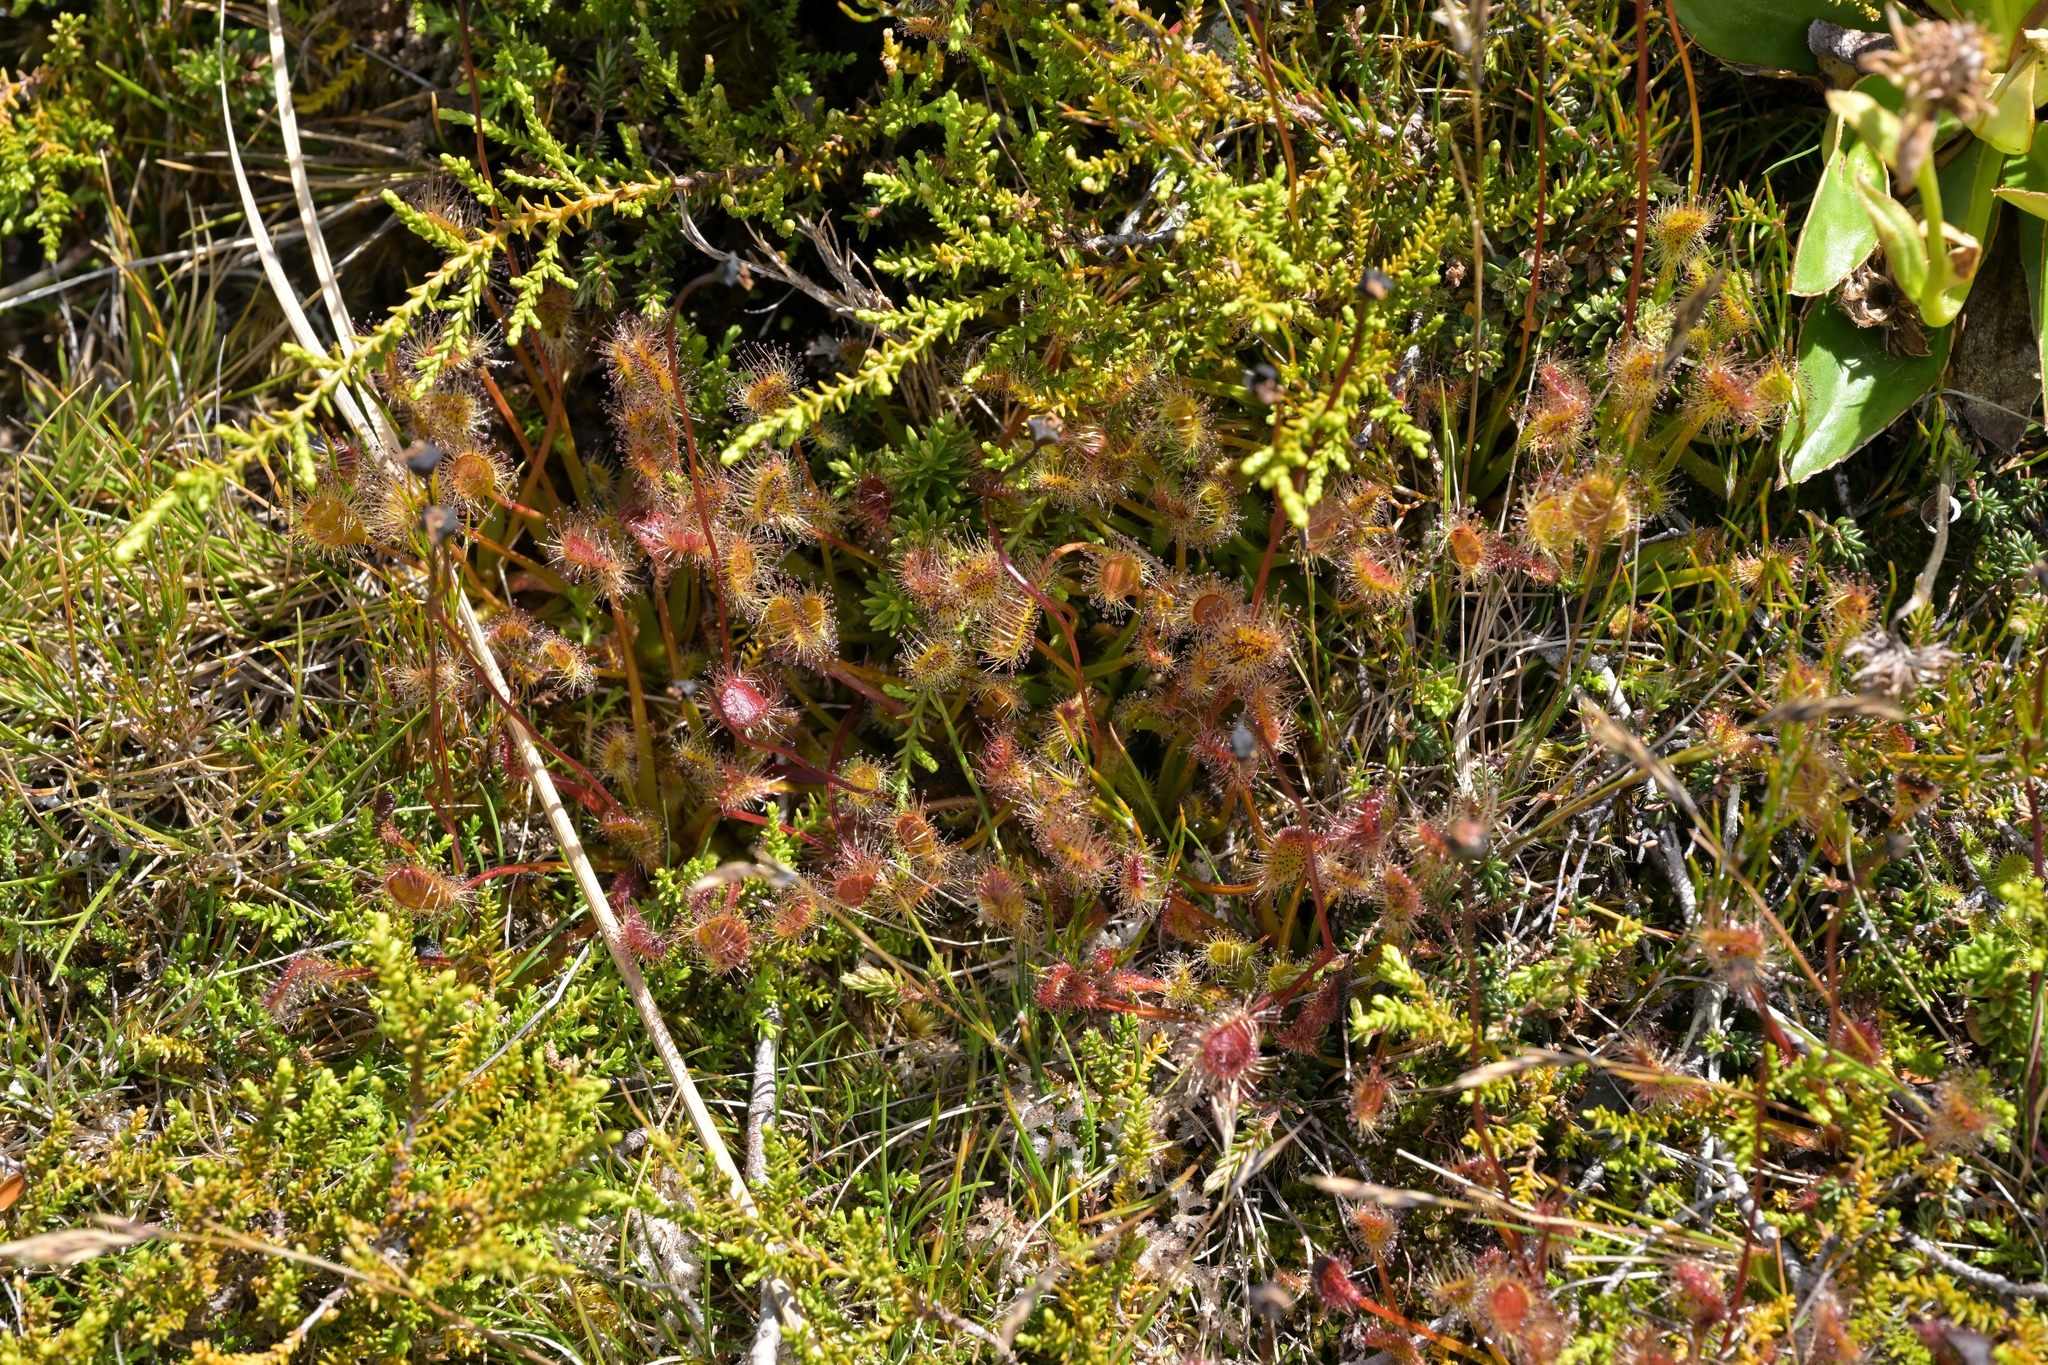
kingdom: Plantae
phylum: Tracheophyta
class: Magnoliopsida
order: Caryophyllales
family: Droseraceae
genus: Drosera
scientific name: Drosera stenopetala
